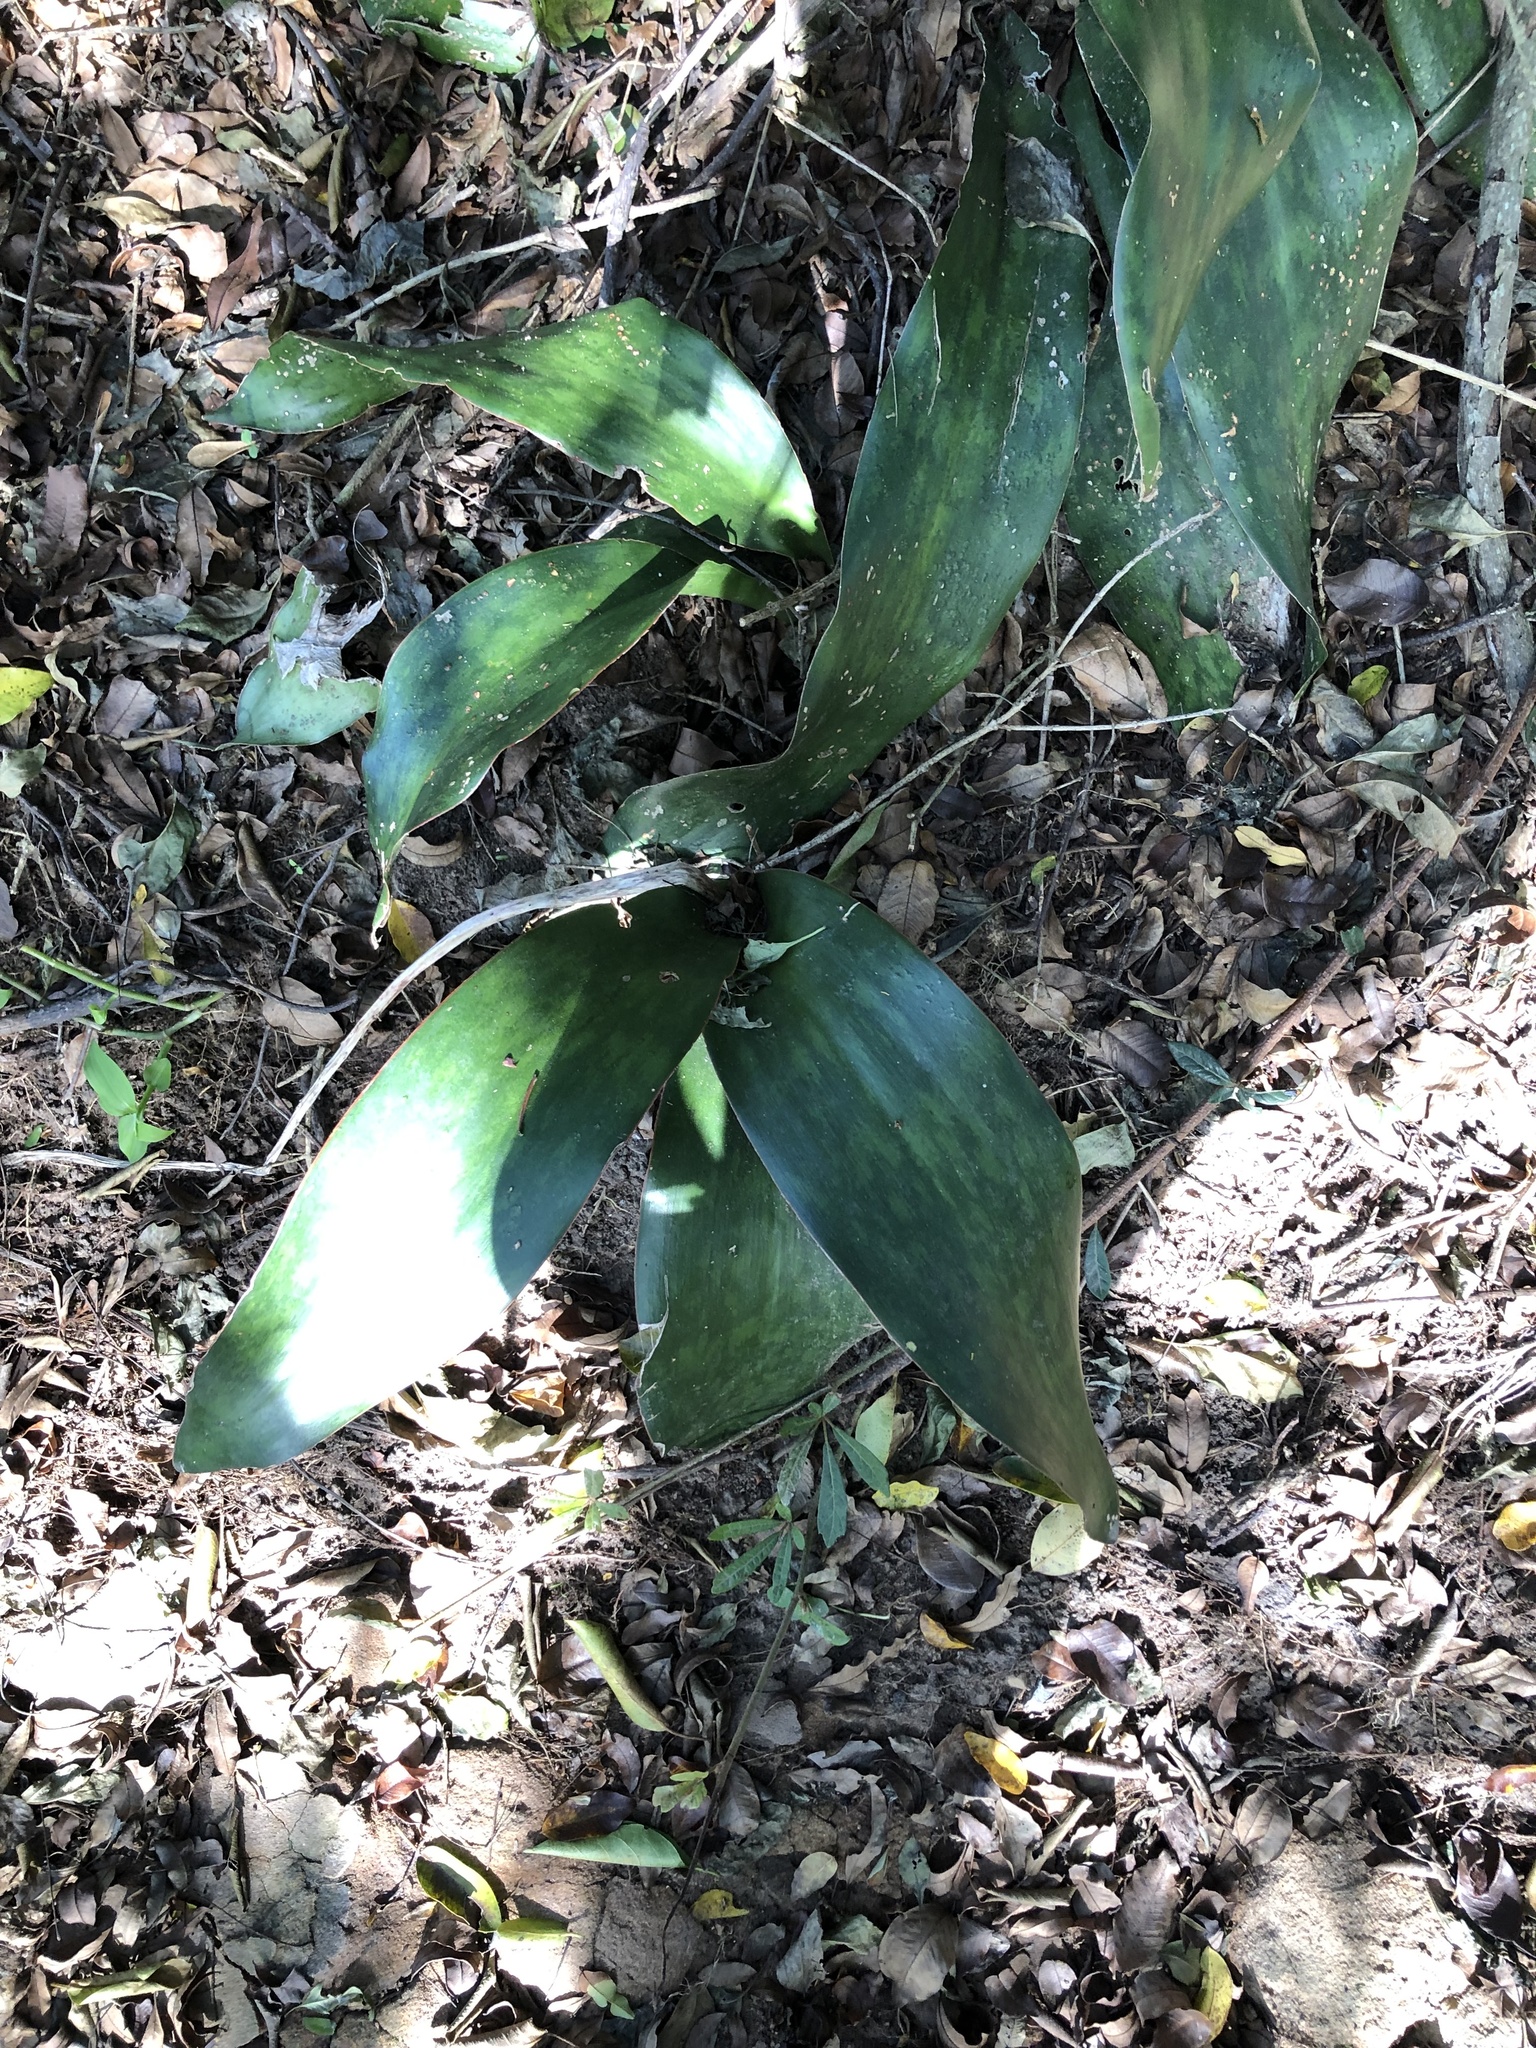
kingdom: Plantae
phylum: Tracheophyta
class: Liliopsida
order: Asparagales
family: Asparagaceae
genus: Dracaena
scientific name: Dracaena hyacinthoides
